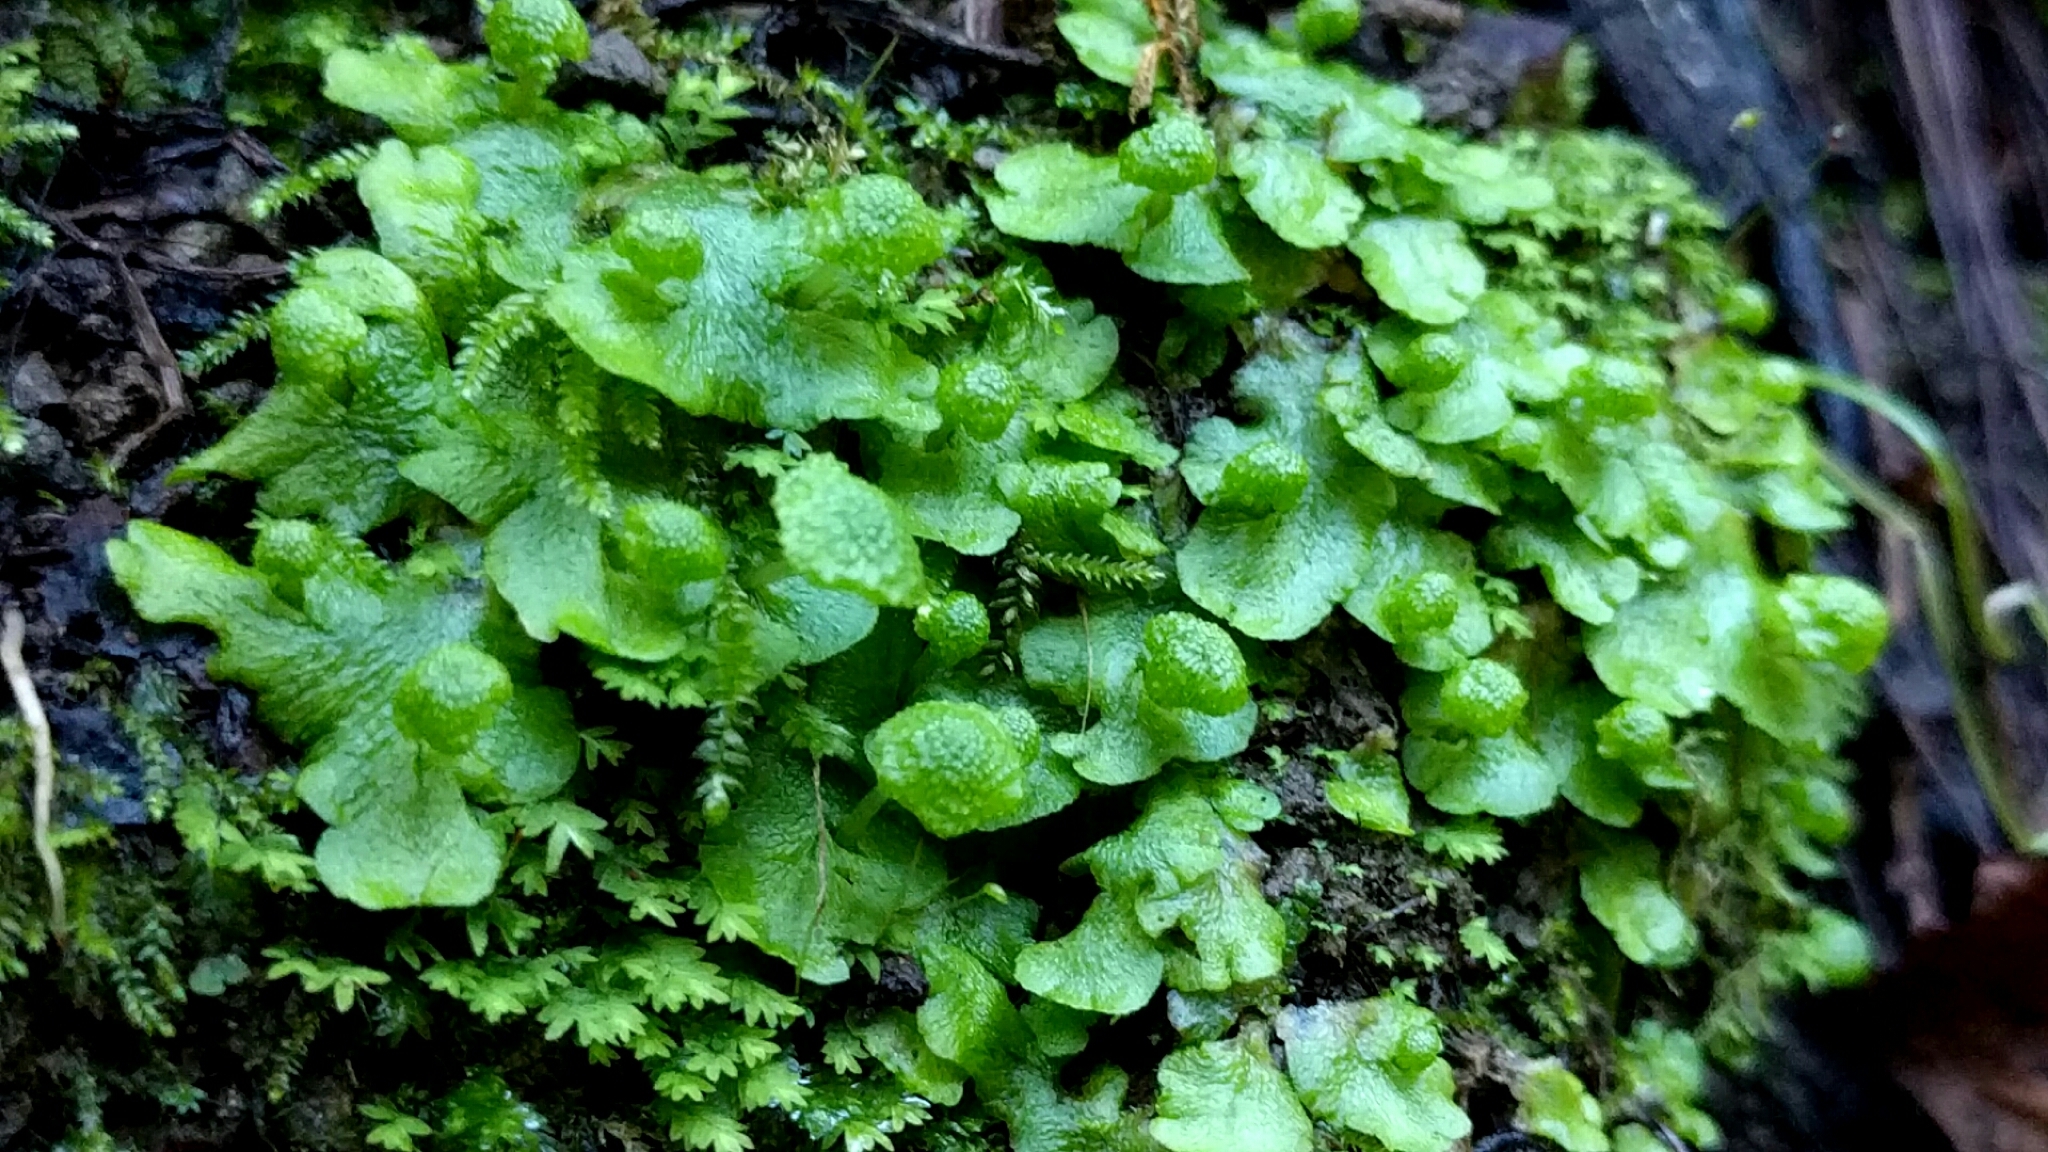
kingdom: Plantae
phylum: Marchantiophyta
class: Marchantiopsida
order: Marchantiales
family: Aytoniaceae
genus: Cryptomitrium
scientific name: Cryptomitrium tenerum
